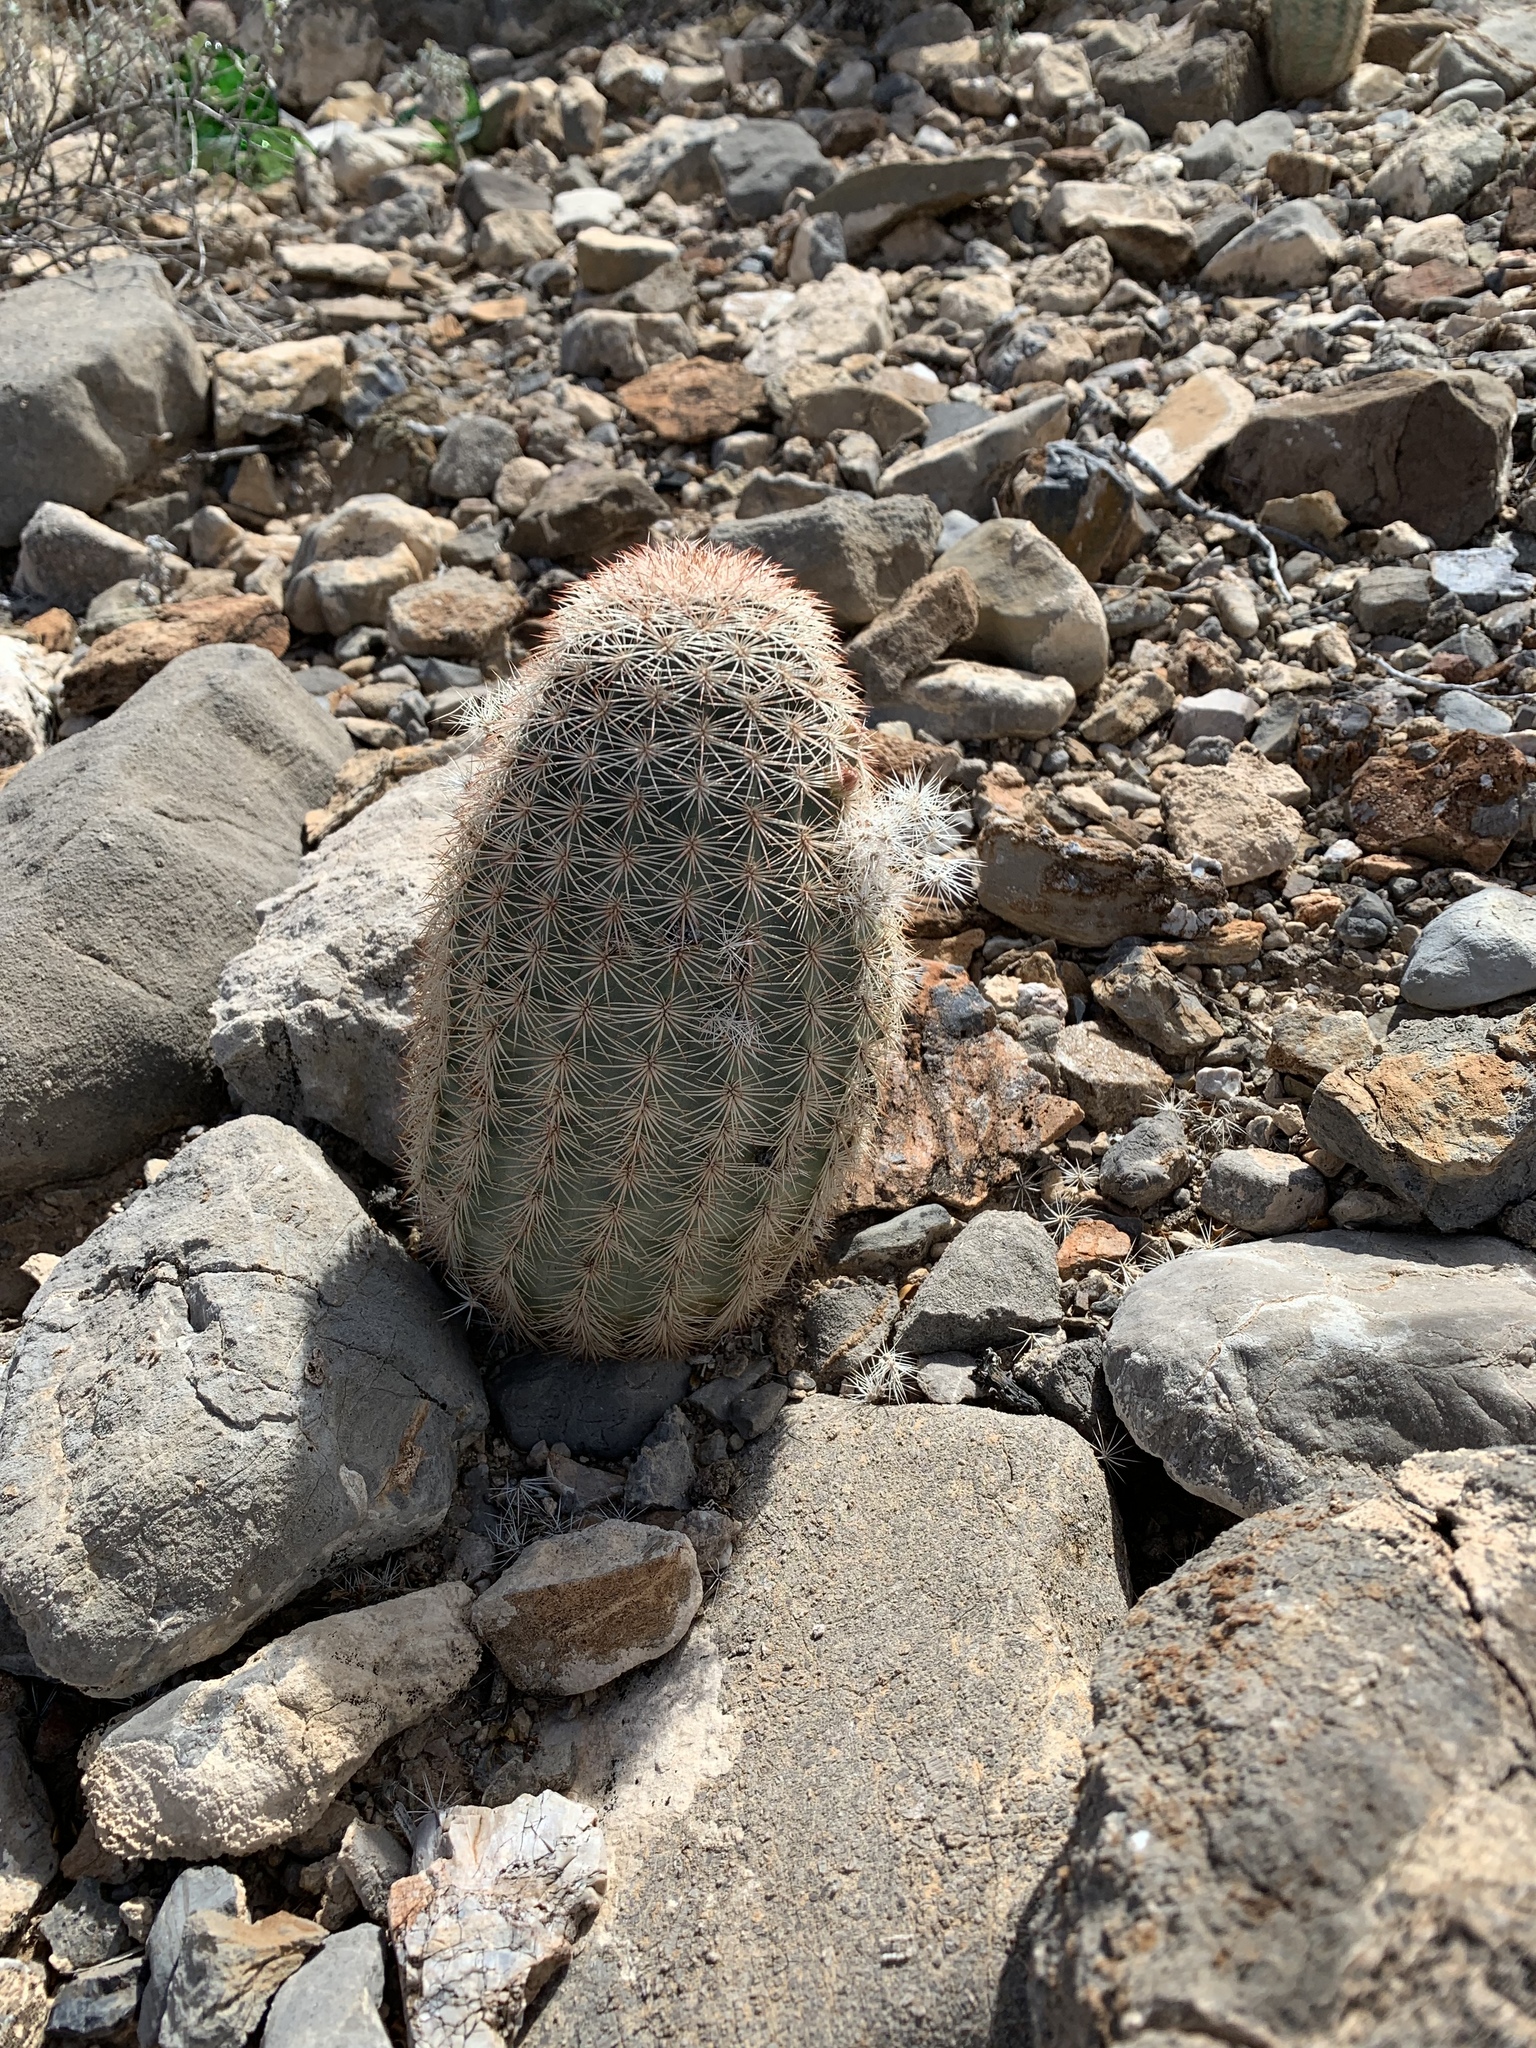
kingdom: Plantae
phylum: Tracheophyta
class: Magnoliopsida
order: Caryophyllales
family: Cactaceae
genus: Echinocereus
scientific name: Echinocereus dasyacanthus
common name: Spiny hedgehog cactus
